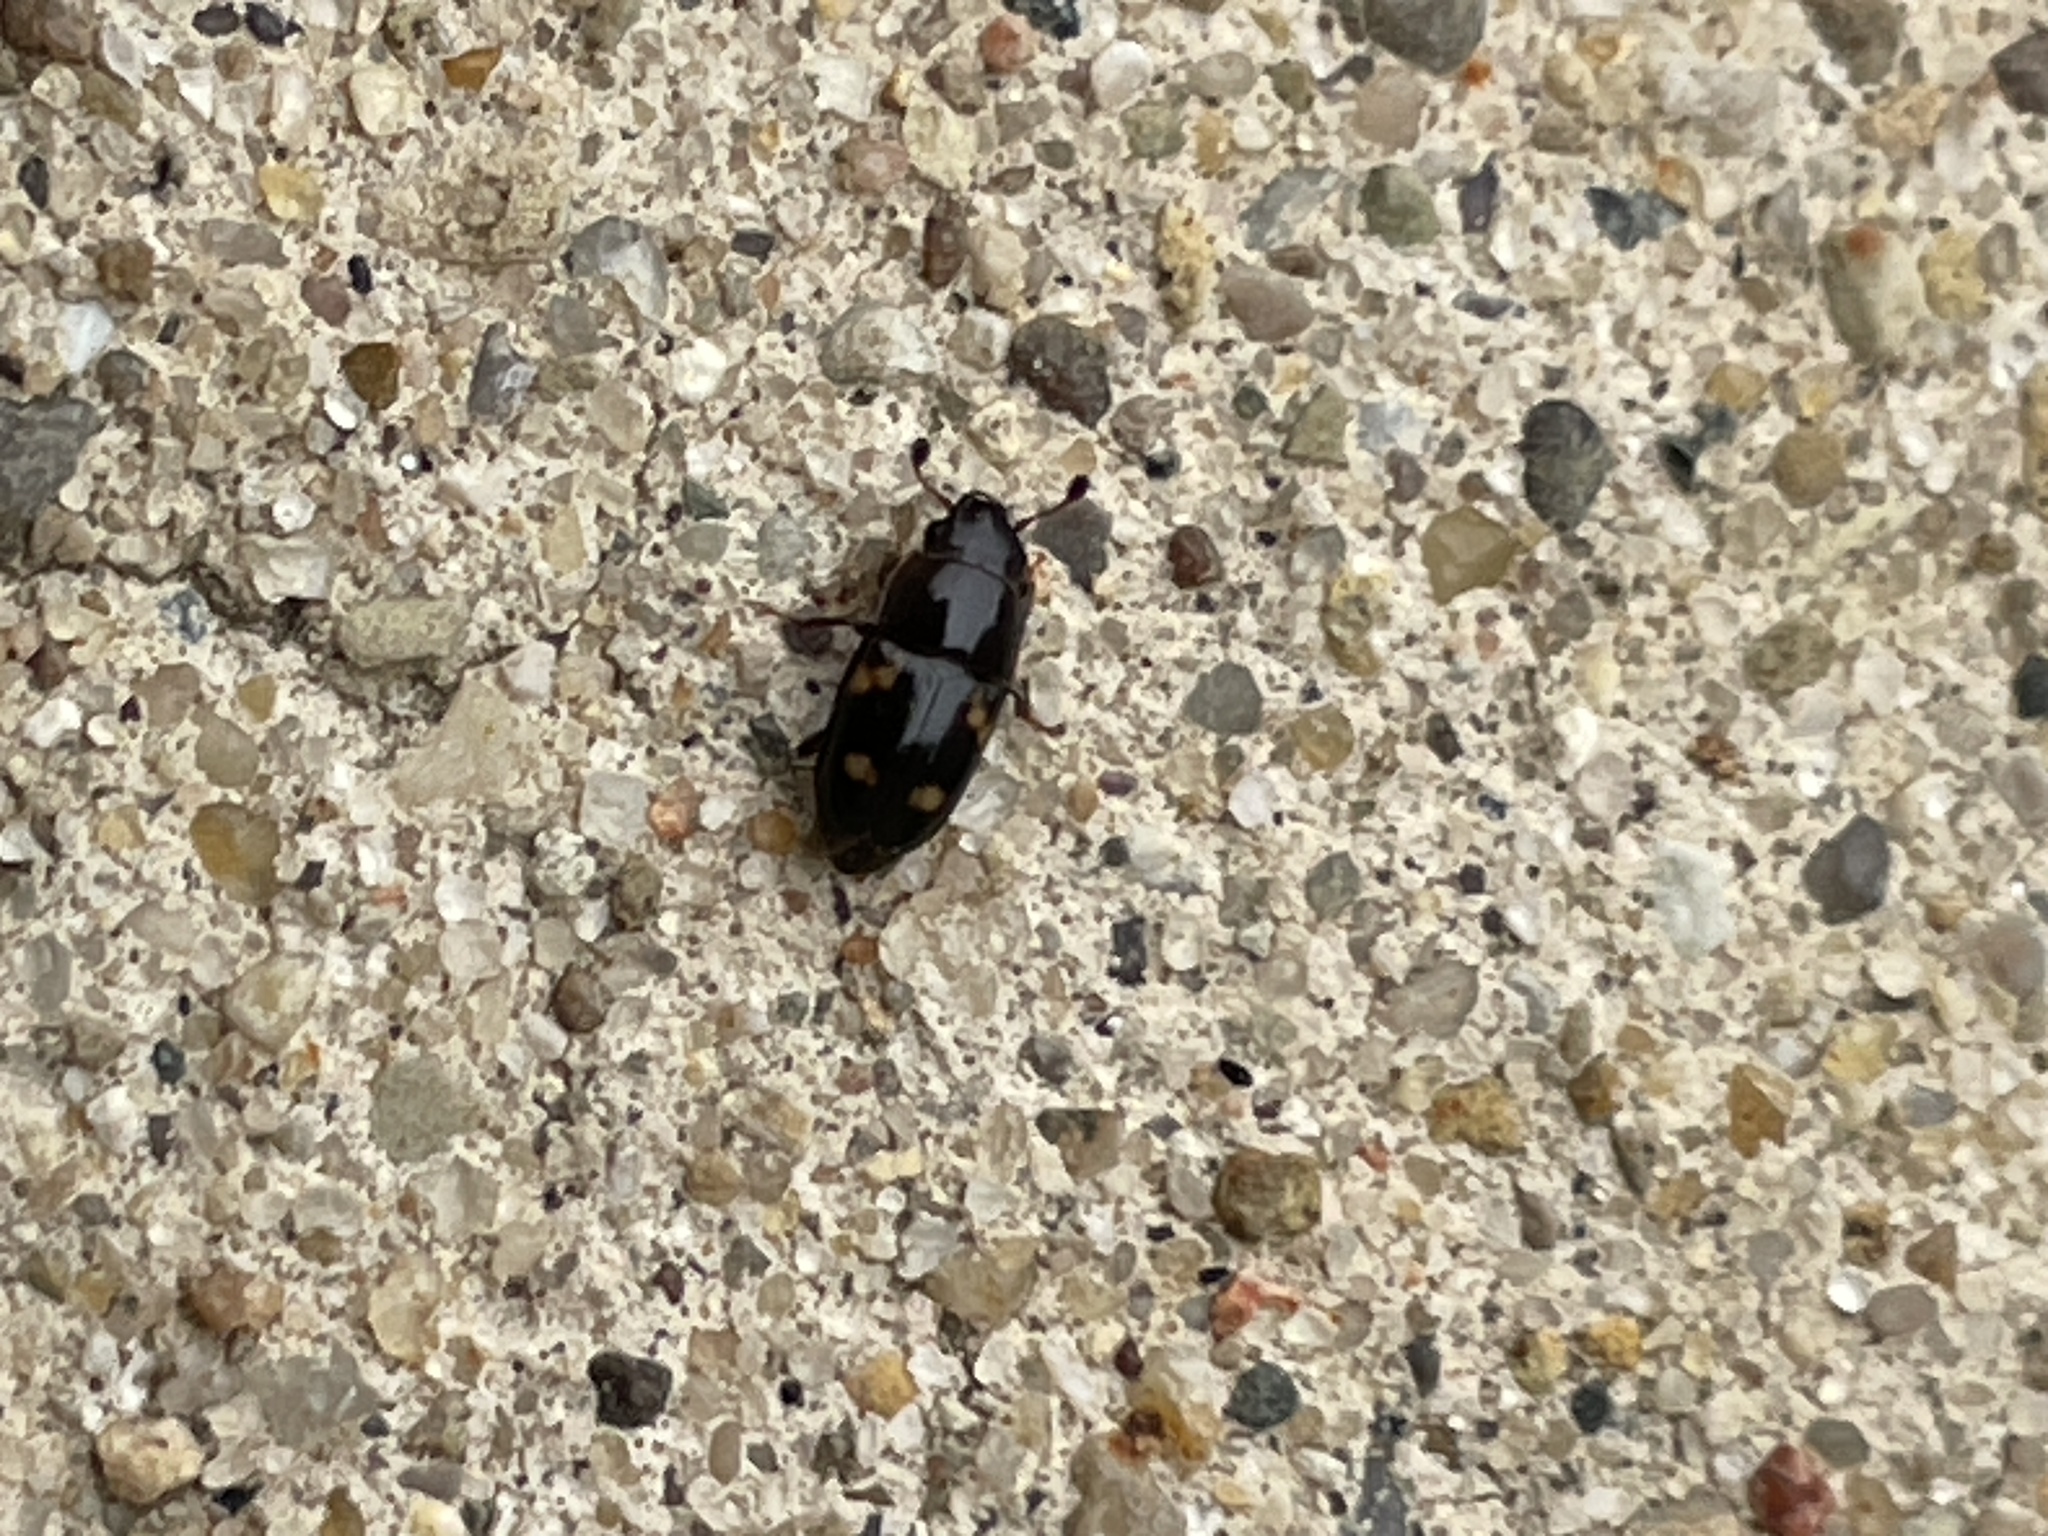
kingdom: Animalia
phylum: Arthropoda
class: Insecta
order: Coleoptera
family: Nitidulidae
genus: Glischrochilus
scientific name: Glischrochilus quadrisignatus
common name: Picnic beetle
